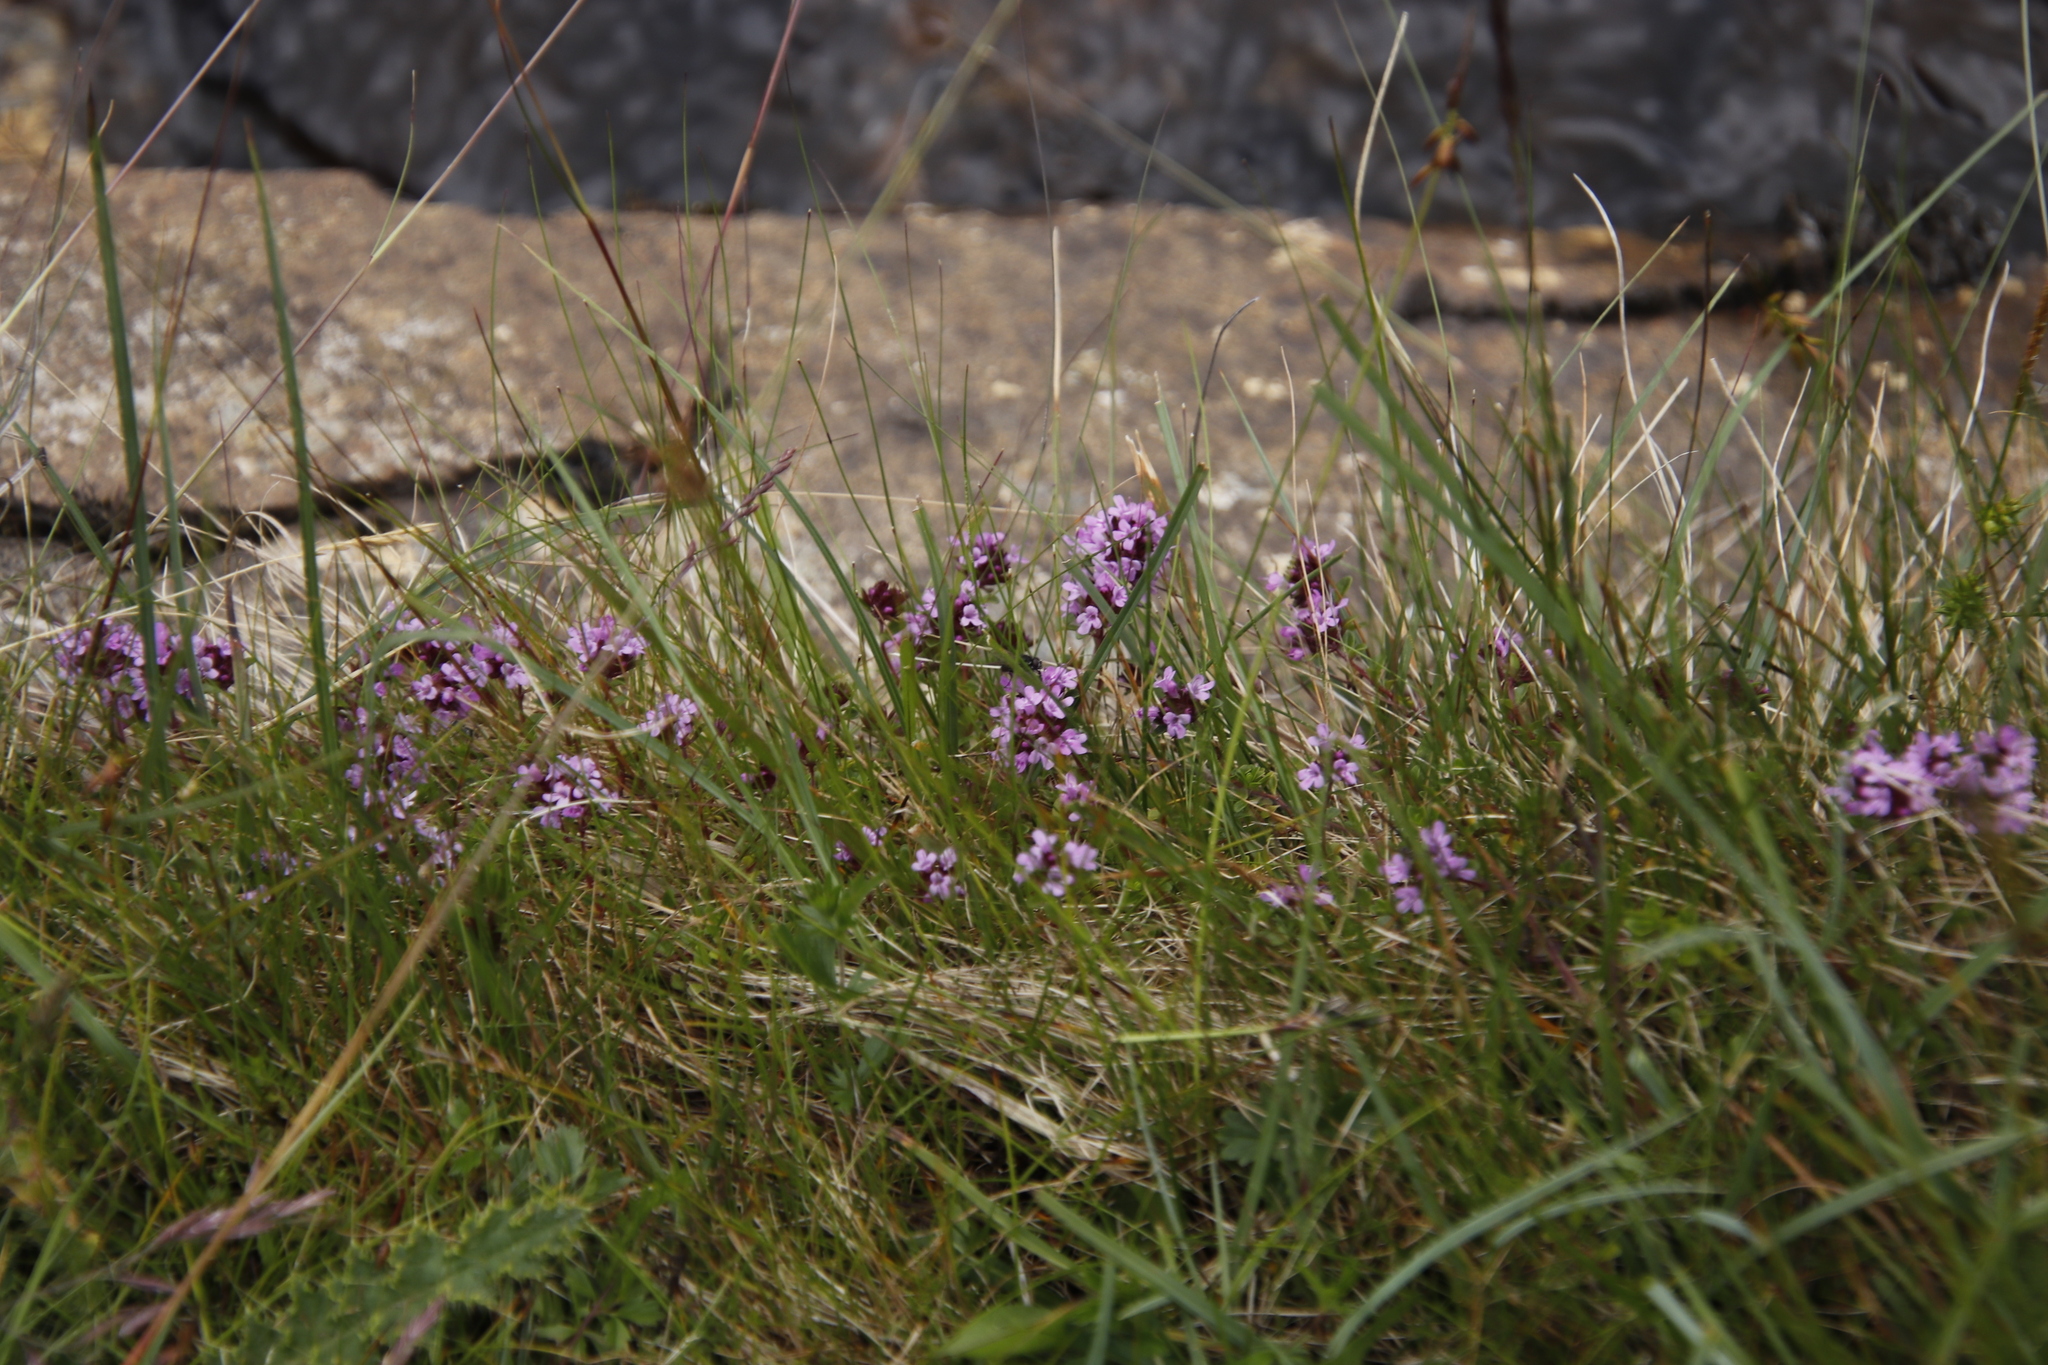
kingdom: Plantae
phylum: Tracheophyta
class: Magnoliopsida
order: Lamiales
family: Lamiaceae
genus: Thymus
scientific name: Thymus praecox
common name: Wild thyme
